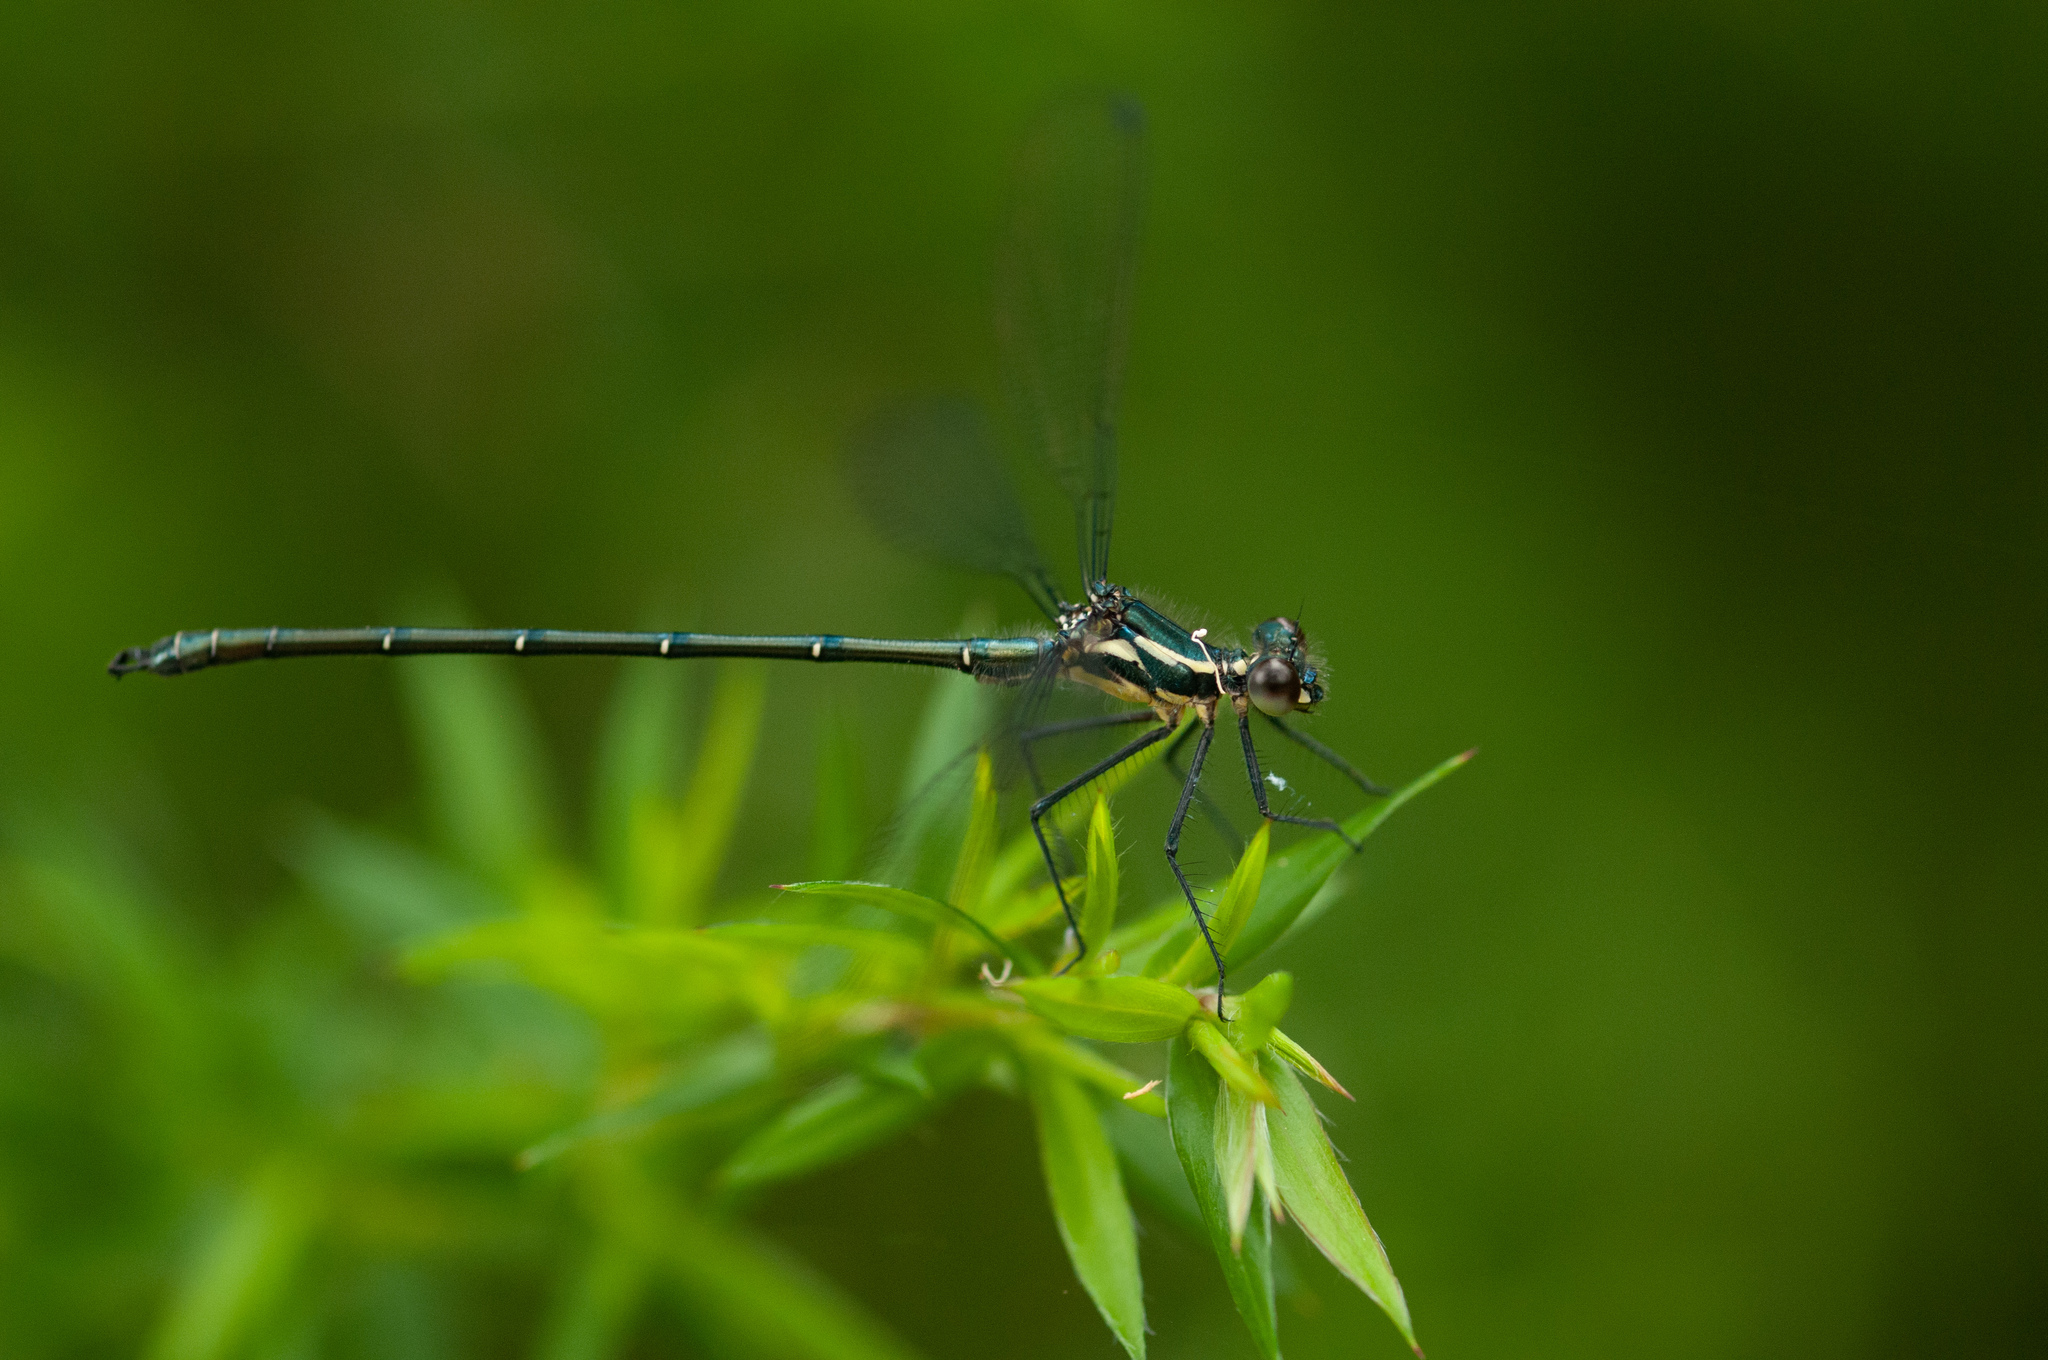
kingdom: Animalia
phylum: Arthropoda
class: Insecta
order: Odonata
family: Argiolestidae
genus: Austroargiolestes
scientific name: Austroargiolestes icteromelas
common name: Common flatwing
